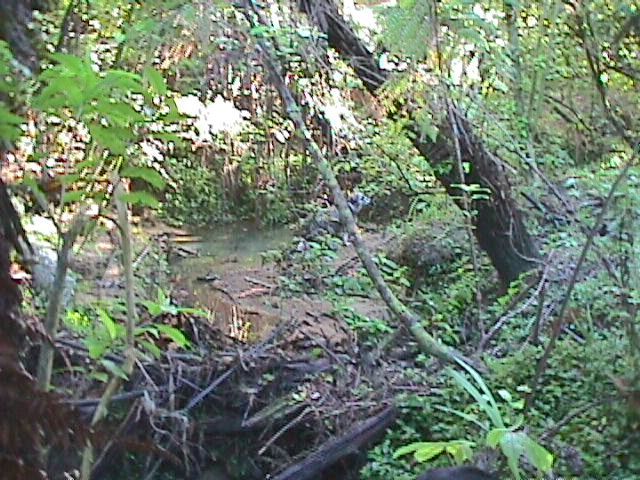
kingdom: Plantae
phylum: Tracheophyta
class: Liliopsida
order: Asparagales
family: Iridaceae
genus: Crocosmia
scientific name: Crocosmia crocosmiiflora
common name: Montbretia
